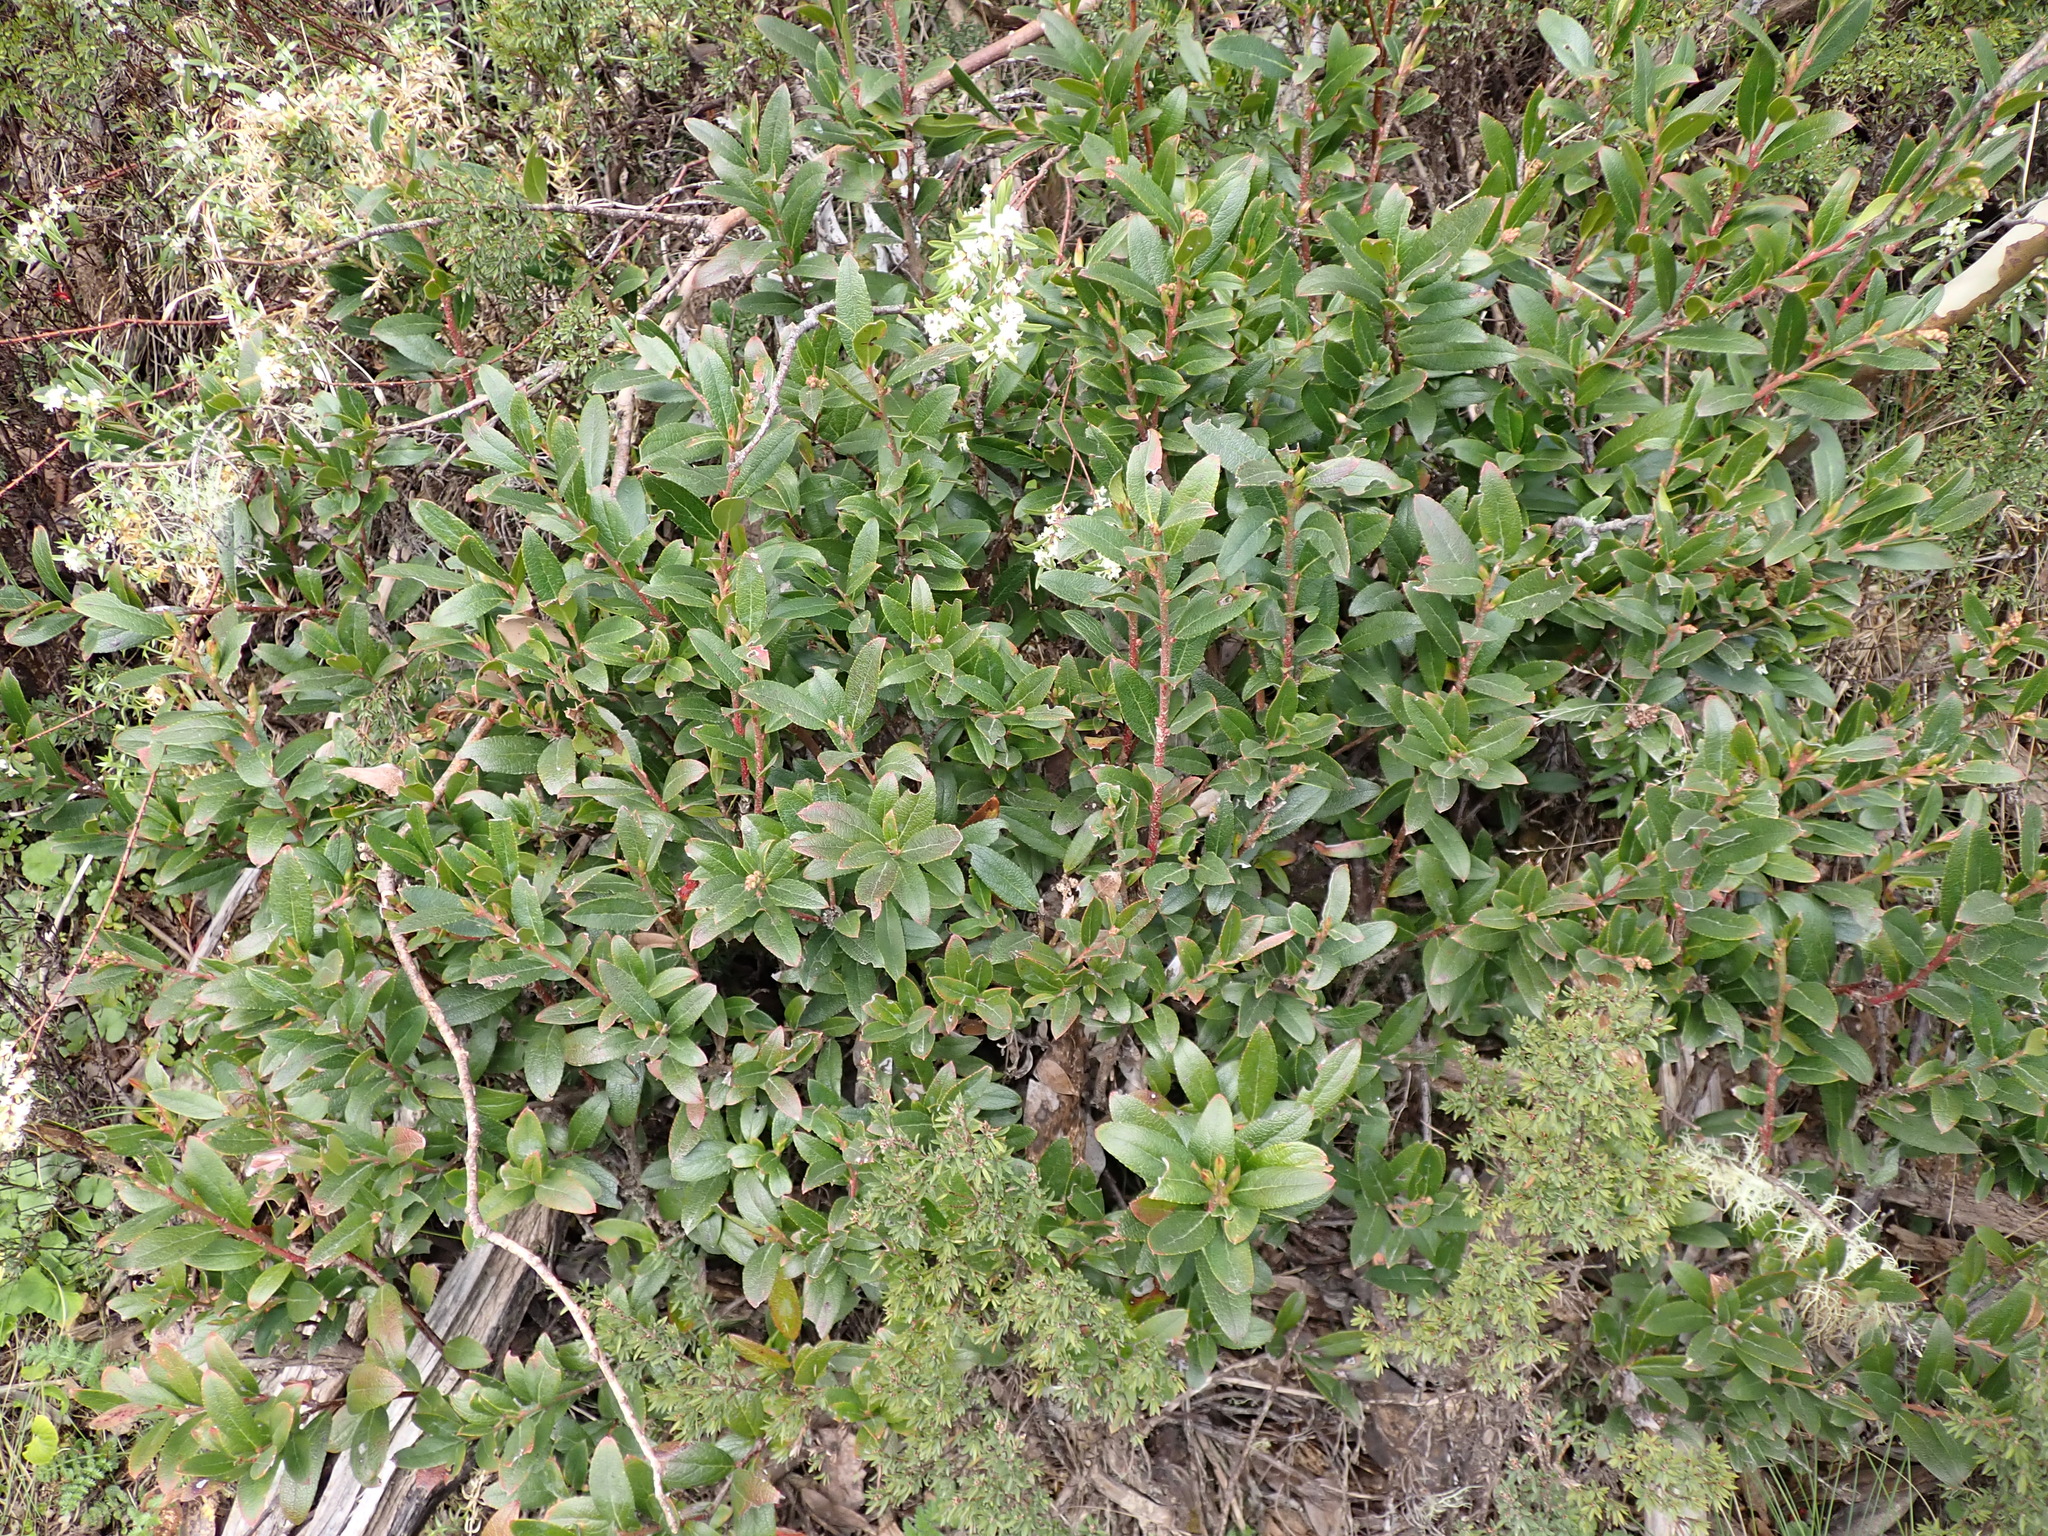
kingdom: Plantae
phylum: Tracheophyta
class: Magnoliopsida
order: Ericales
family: Ericaceae
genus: Gaultheria
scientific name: Gaultheria appressa
